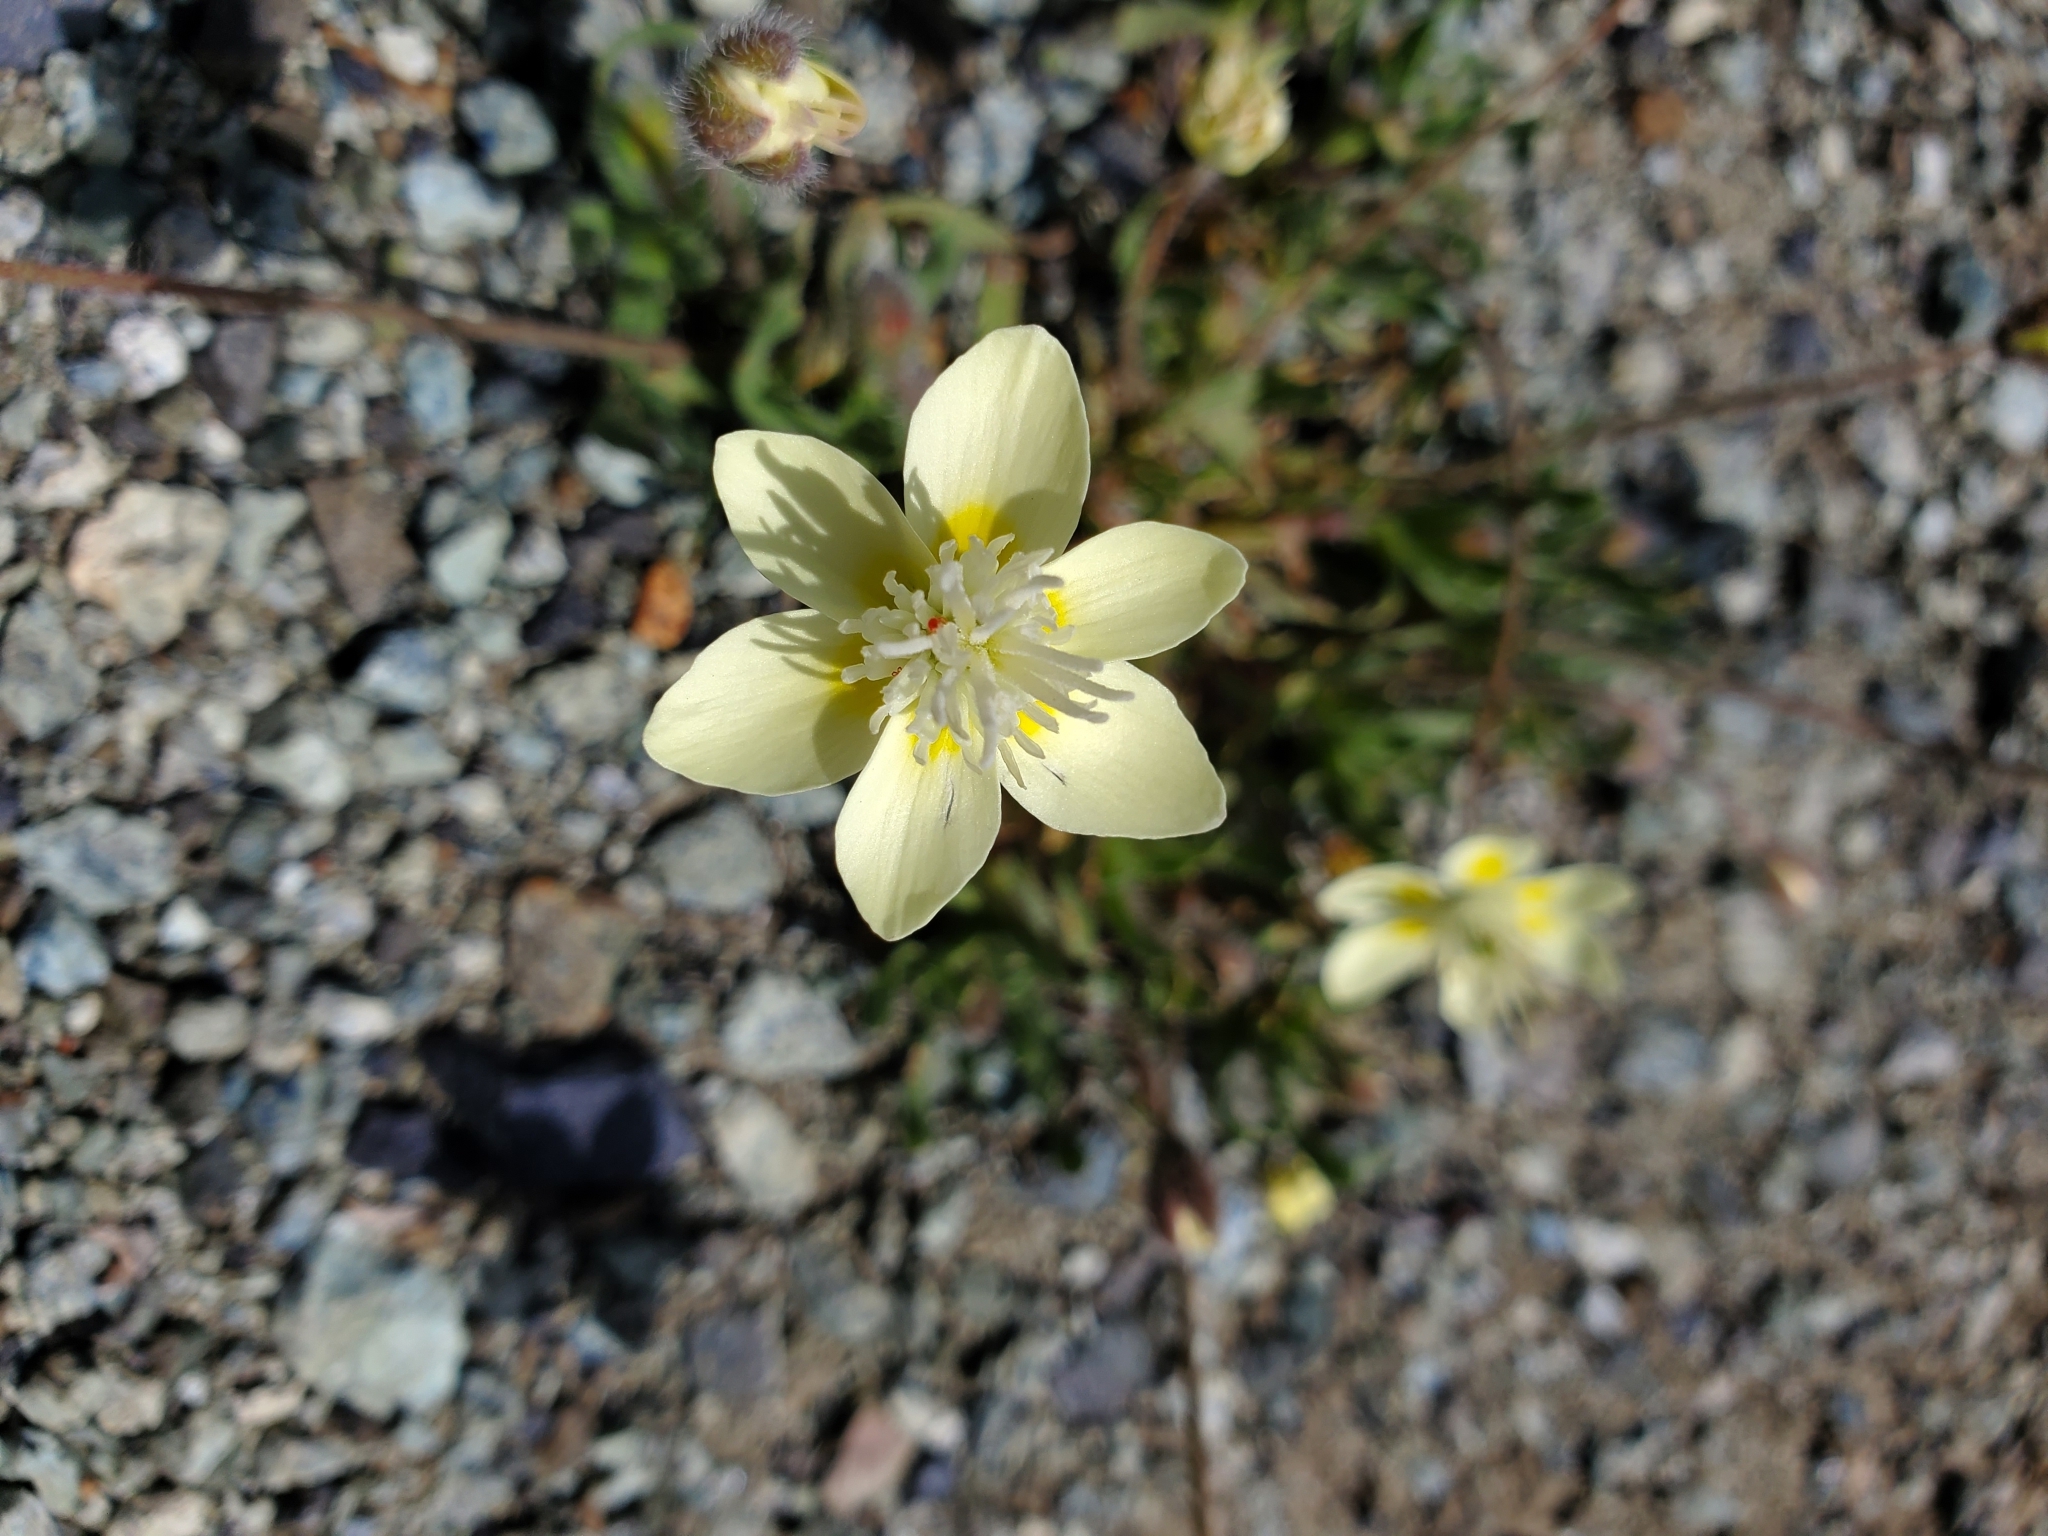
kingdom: Plantae
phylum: Tracheophyta
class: Magnoliopsida
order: Ranunculales
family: Papaveraceae
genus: Platystemon
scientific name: Platystemon californicus
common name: Cream-cups
